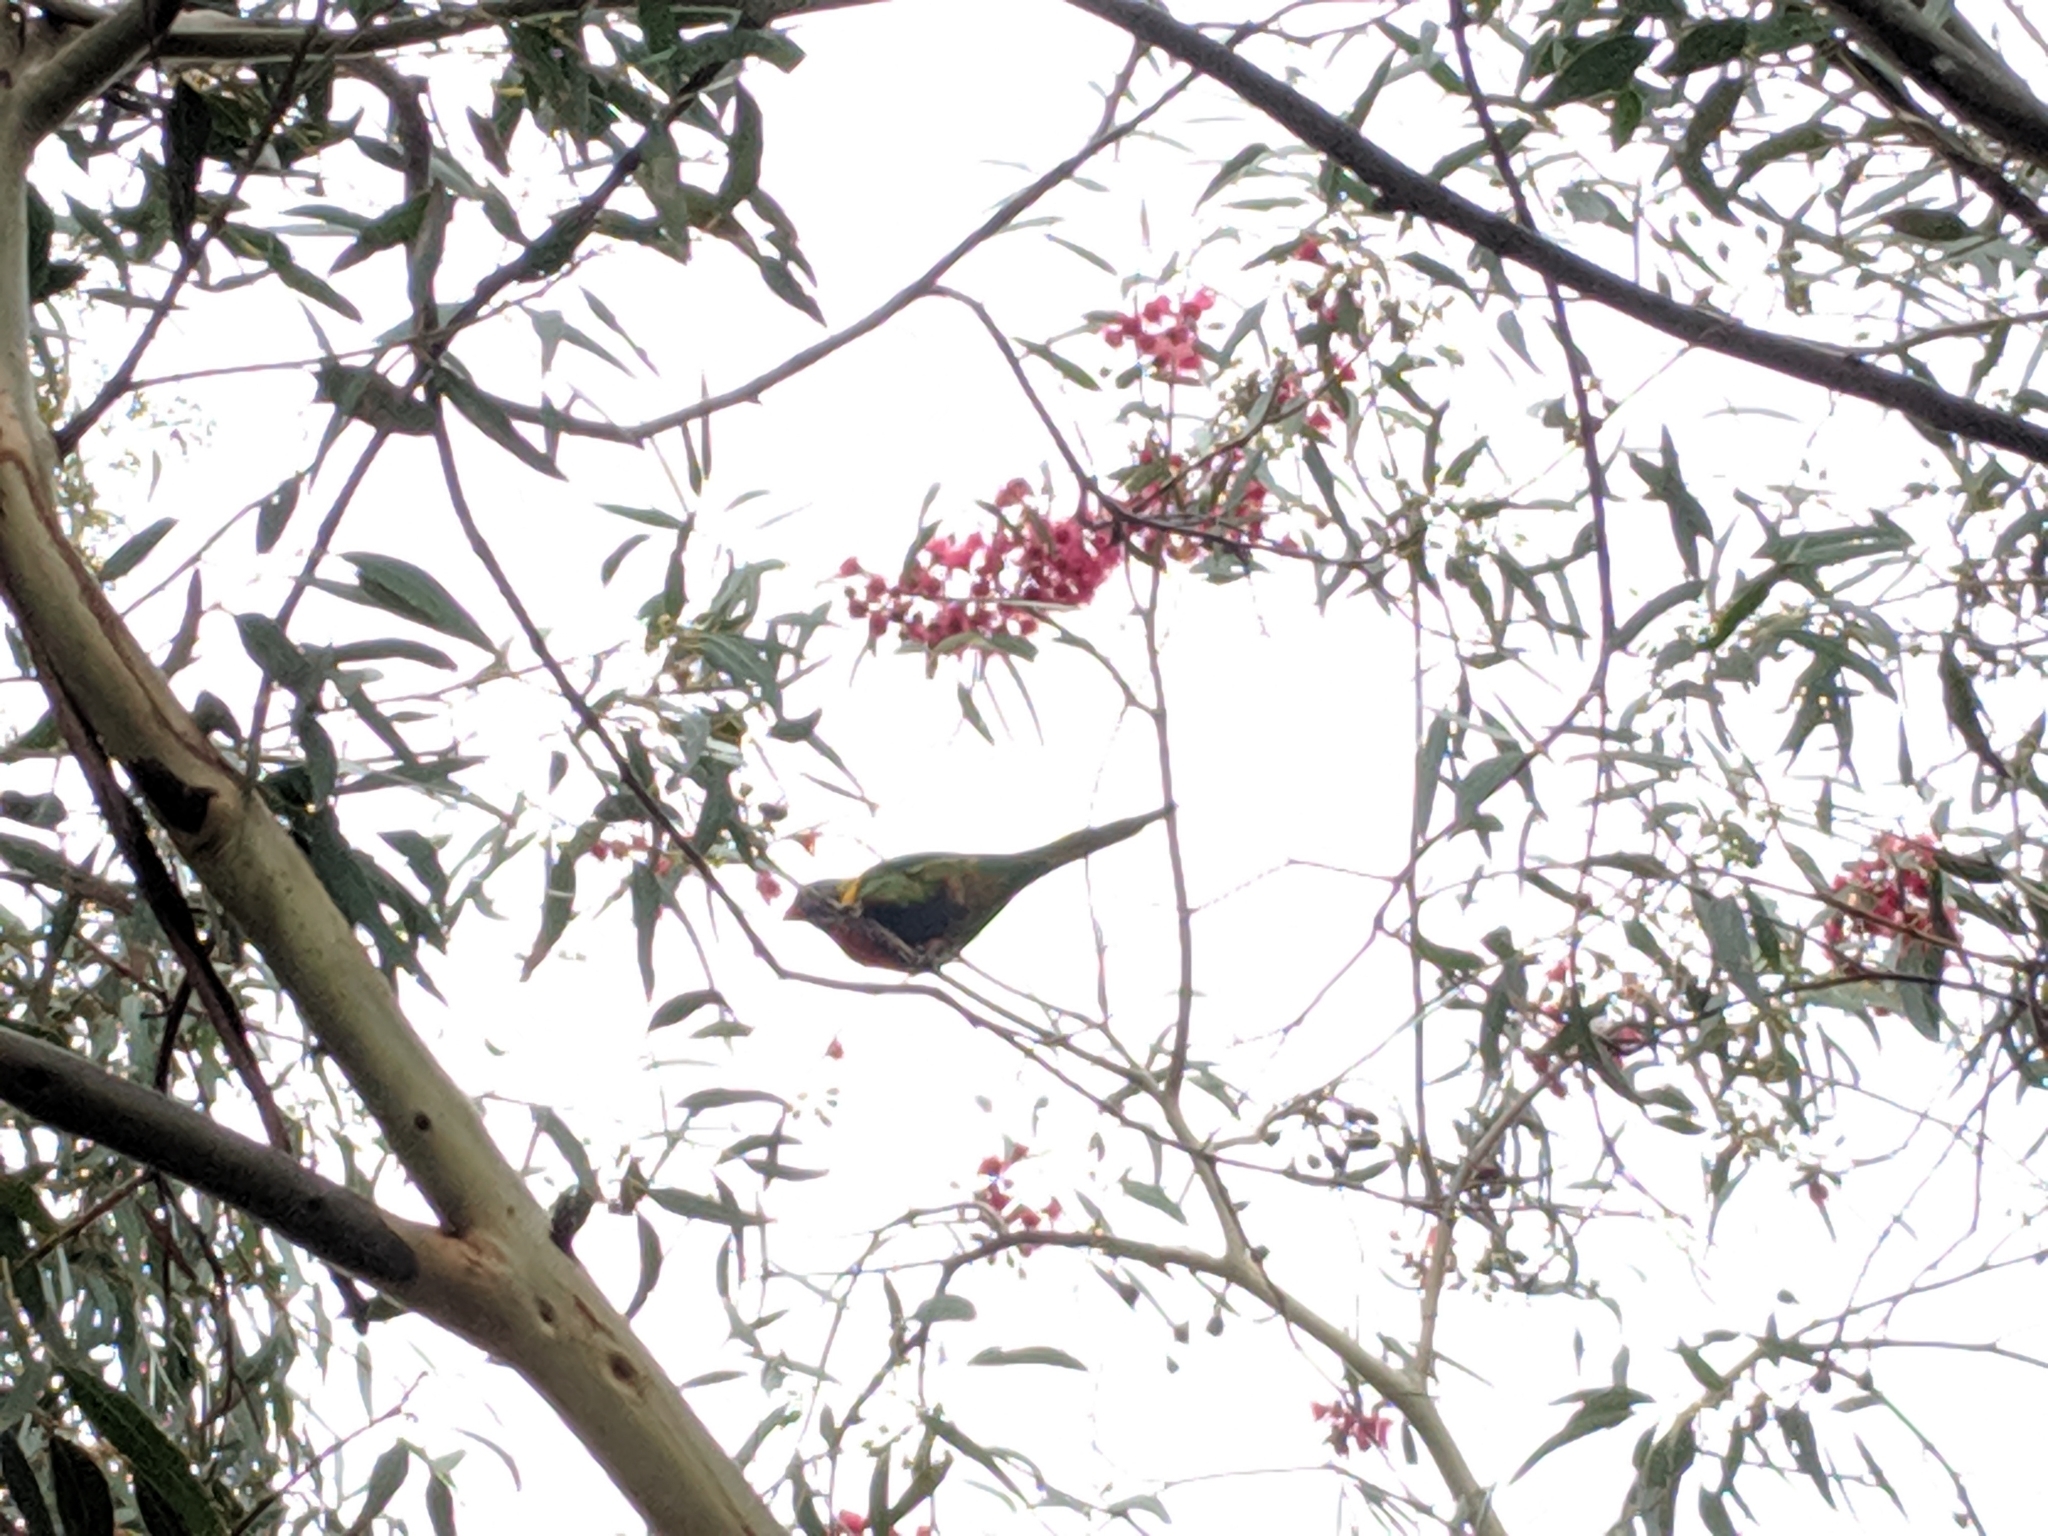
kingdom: Animalia
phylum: Chordata
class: Aves
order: Psittaciformes
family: Psittacidae
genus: Trichoglossus
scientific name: Trichoglossus haematodus
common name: Coconut lorikeet
